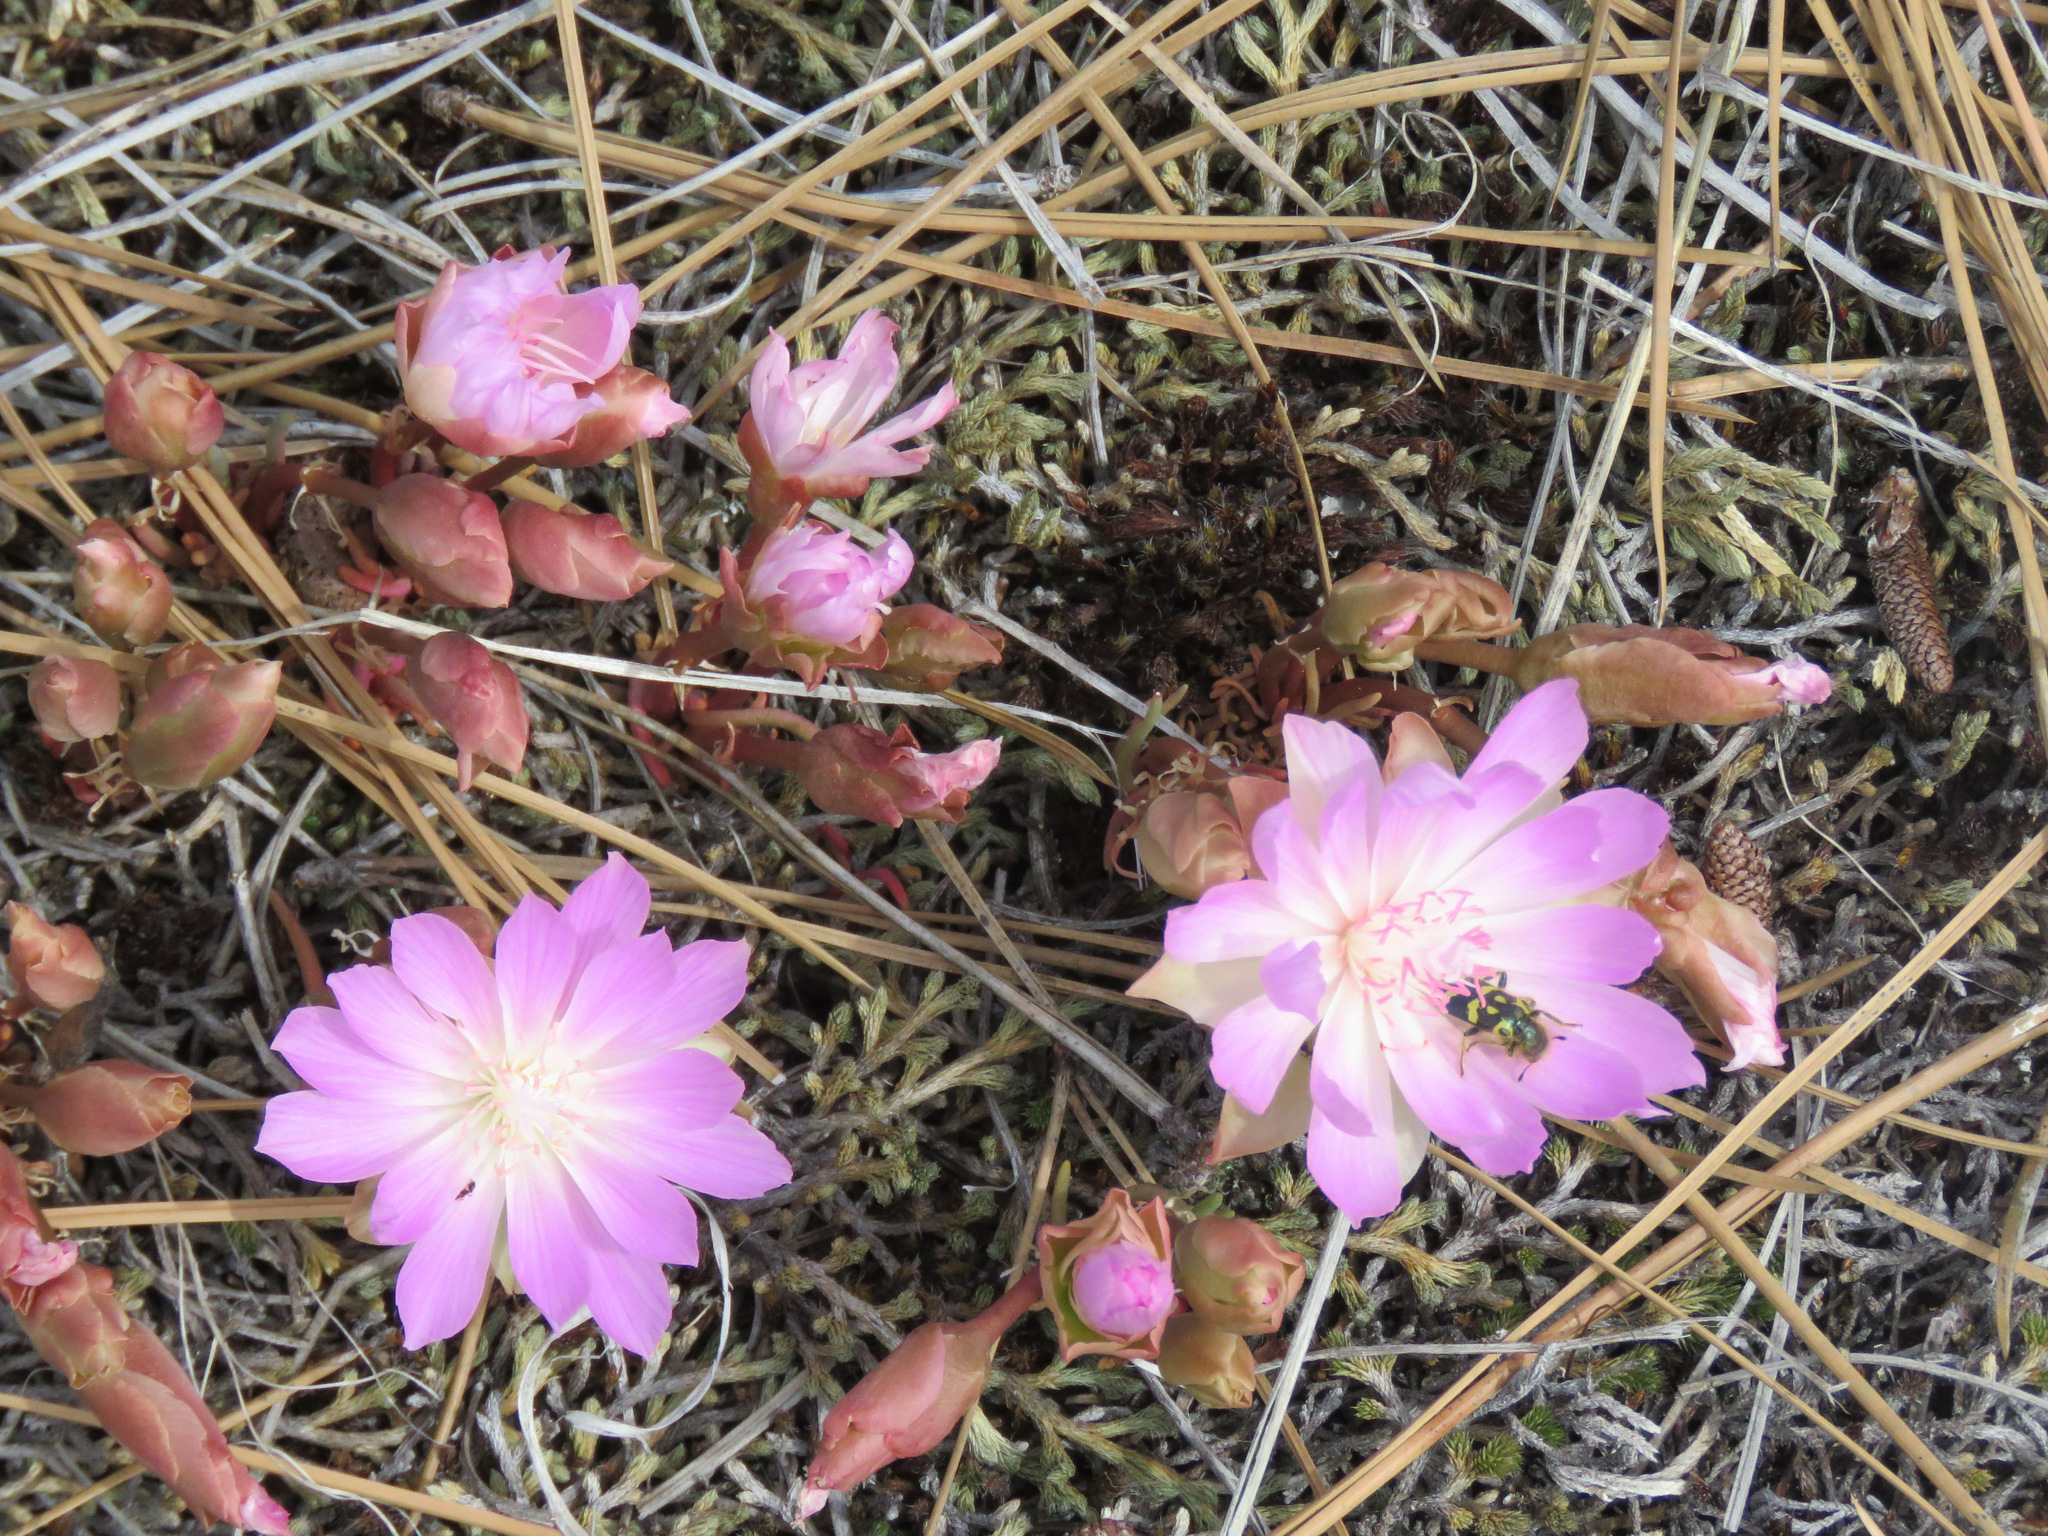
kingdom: Plantae
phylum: Tracheophyta
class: Magnoliopsida
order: Caryophyllales
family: Montiaceae
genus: Lewisia
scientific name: Lewisia rediviva
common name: Bitter-root
